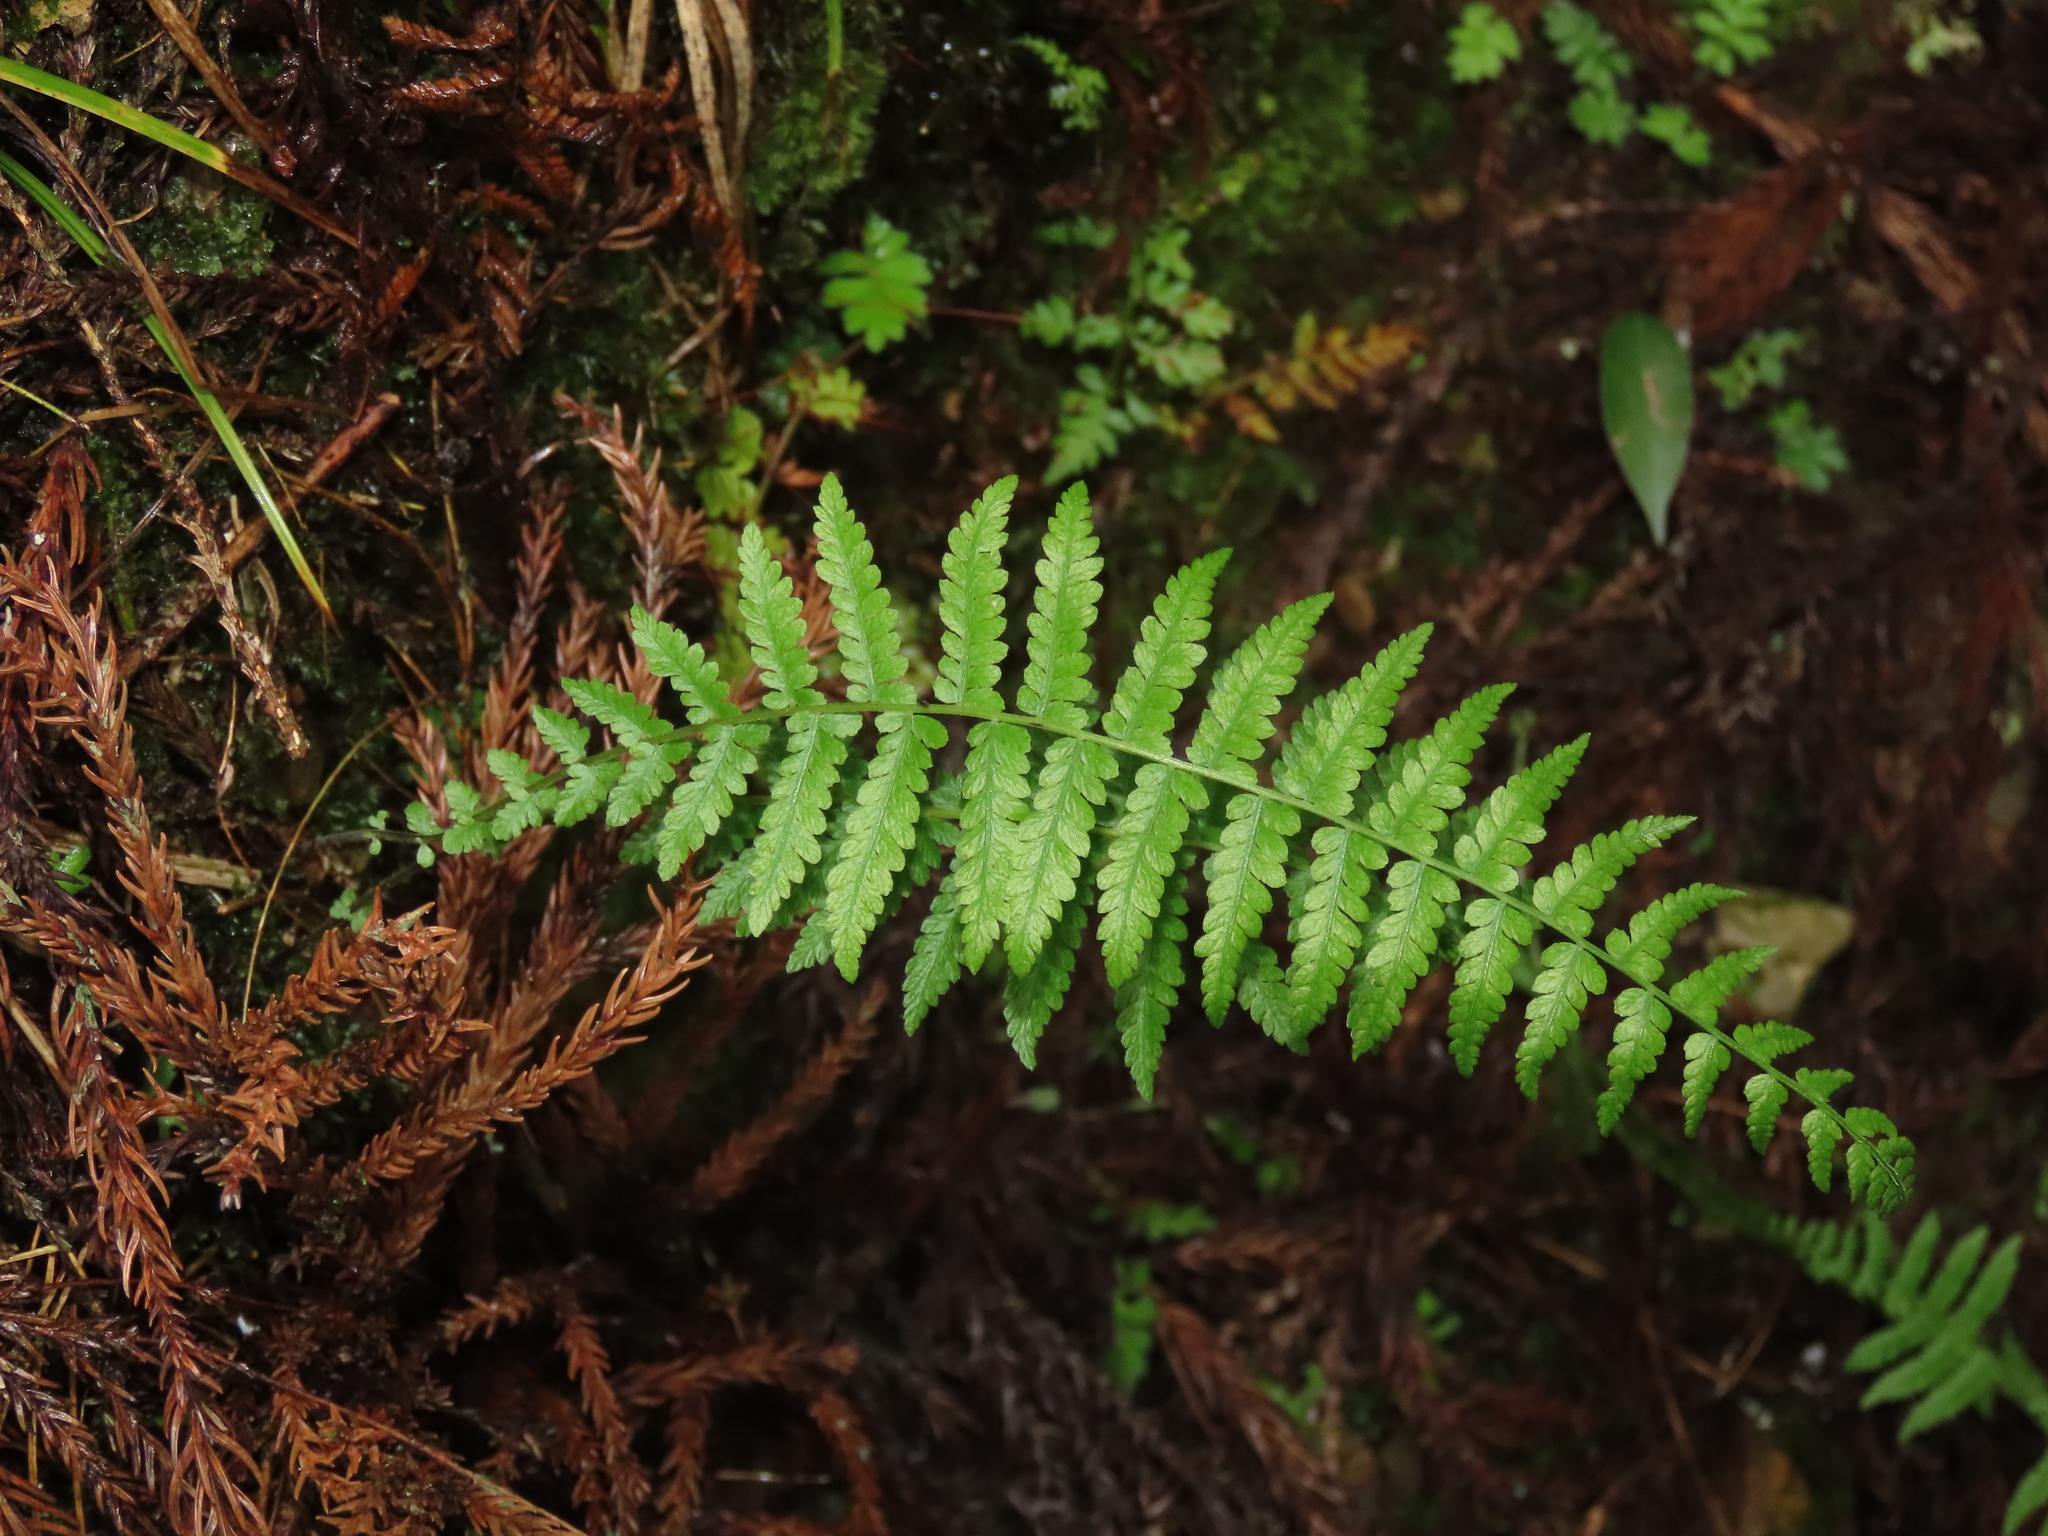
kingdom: Plantae
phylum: Tracheophyta
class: Polypodiopsida
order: Polypodiales
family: Thelypteridaceae
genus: Amauropelta
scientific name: Amauropelta beddomei
